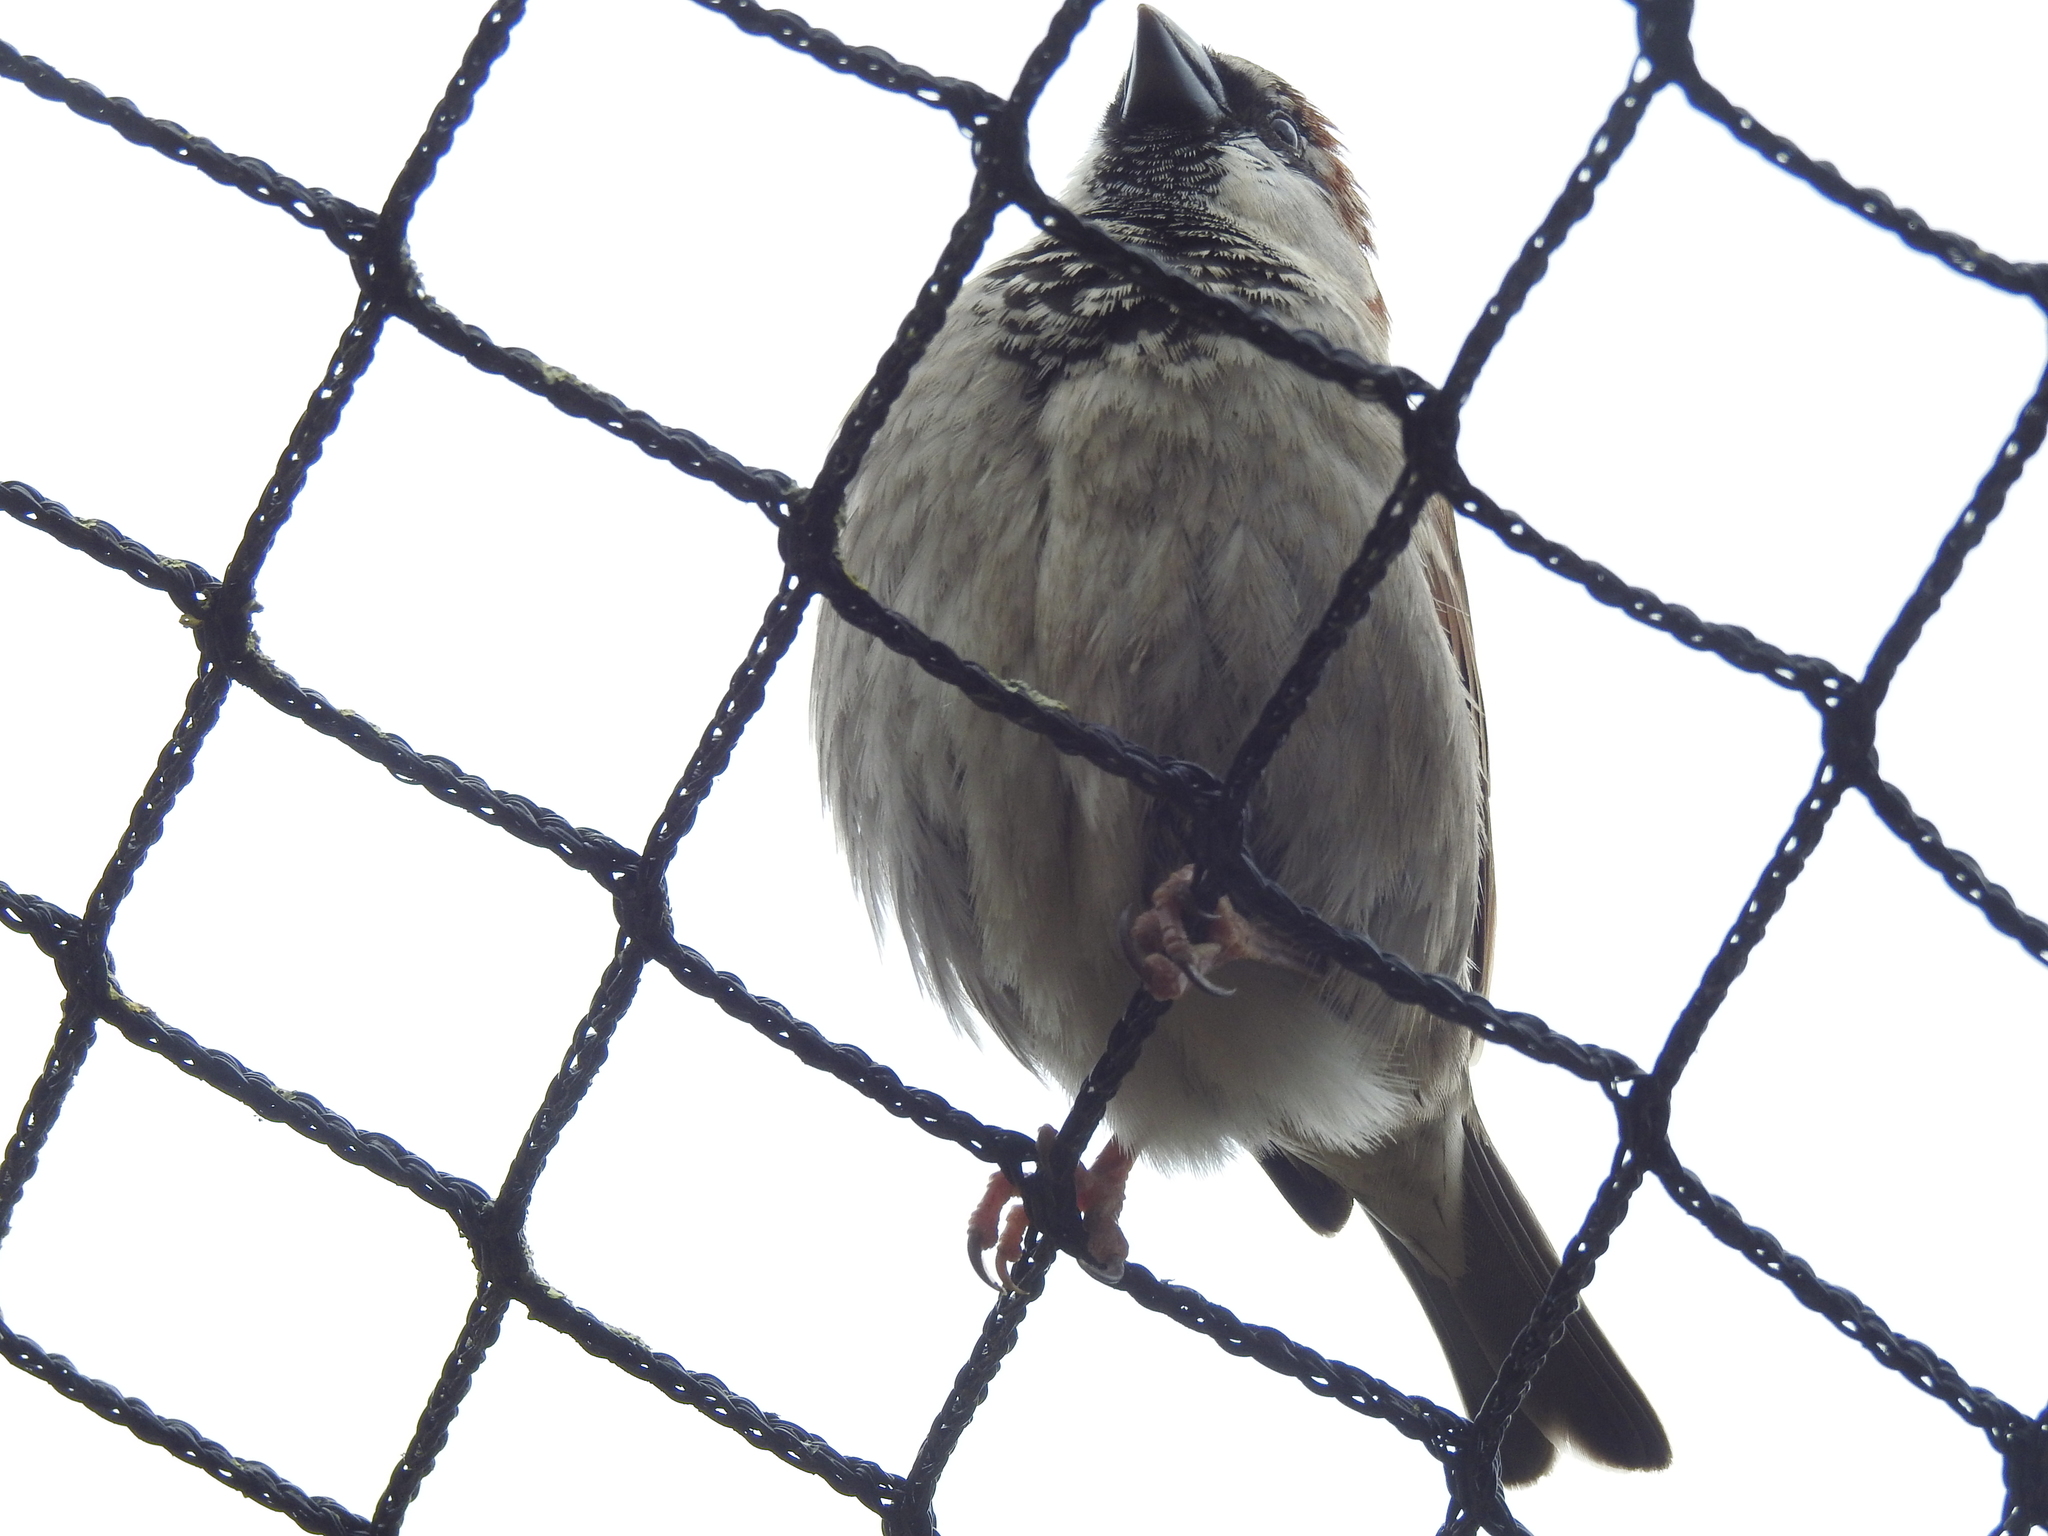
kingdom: Animalia
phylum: Chordata
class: Aves
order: Passeriformes
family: Passeridae
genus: Passer
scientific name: Passer domesticus
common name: House sparrow
